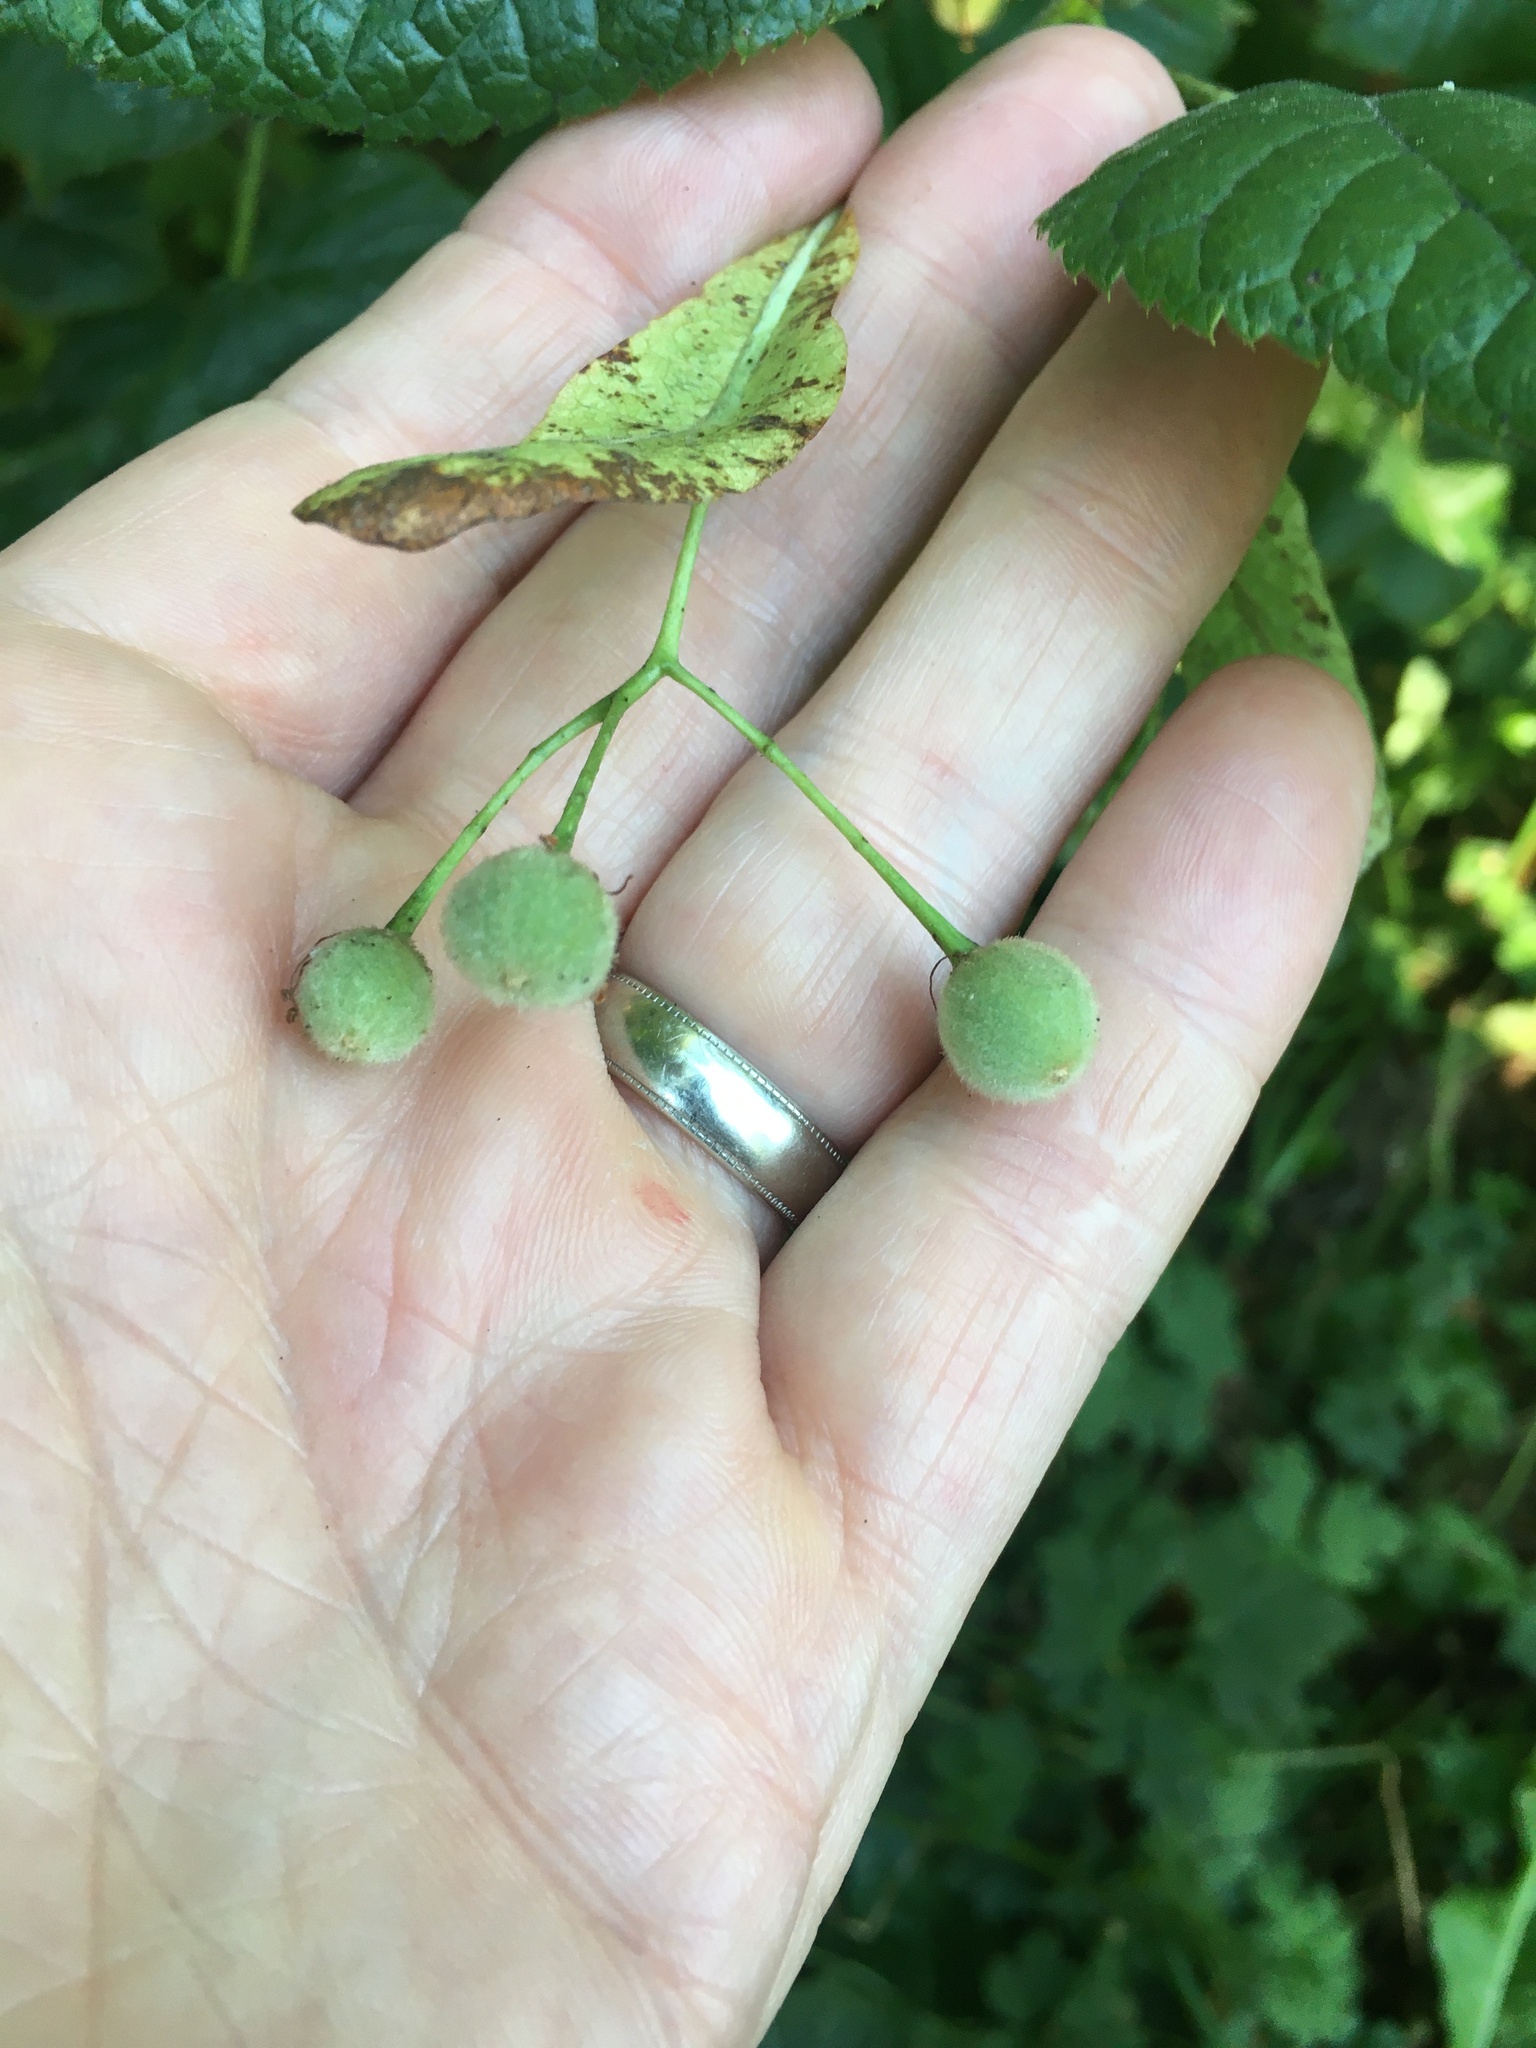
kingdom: Animalia
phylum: Arthropoda
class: Arachnida
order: Trombidiformes
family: Eriophyidae
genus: Eriophyes
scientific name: Eriophyes tiliae
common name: Red nail gall mite
